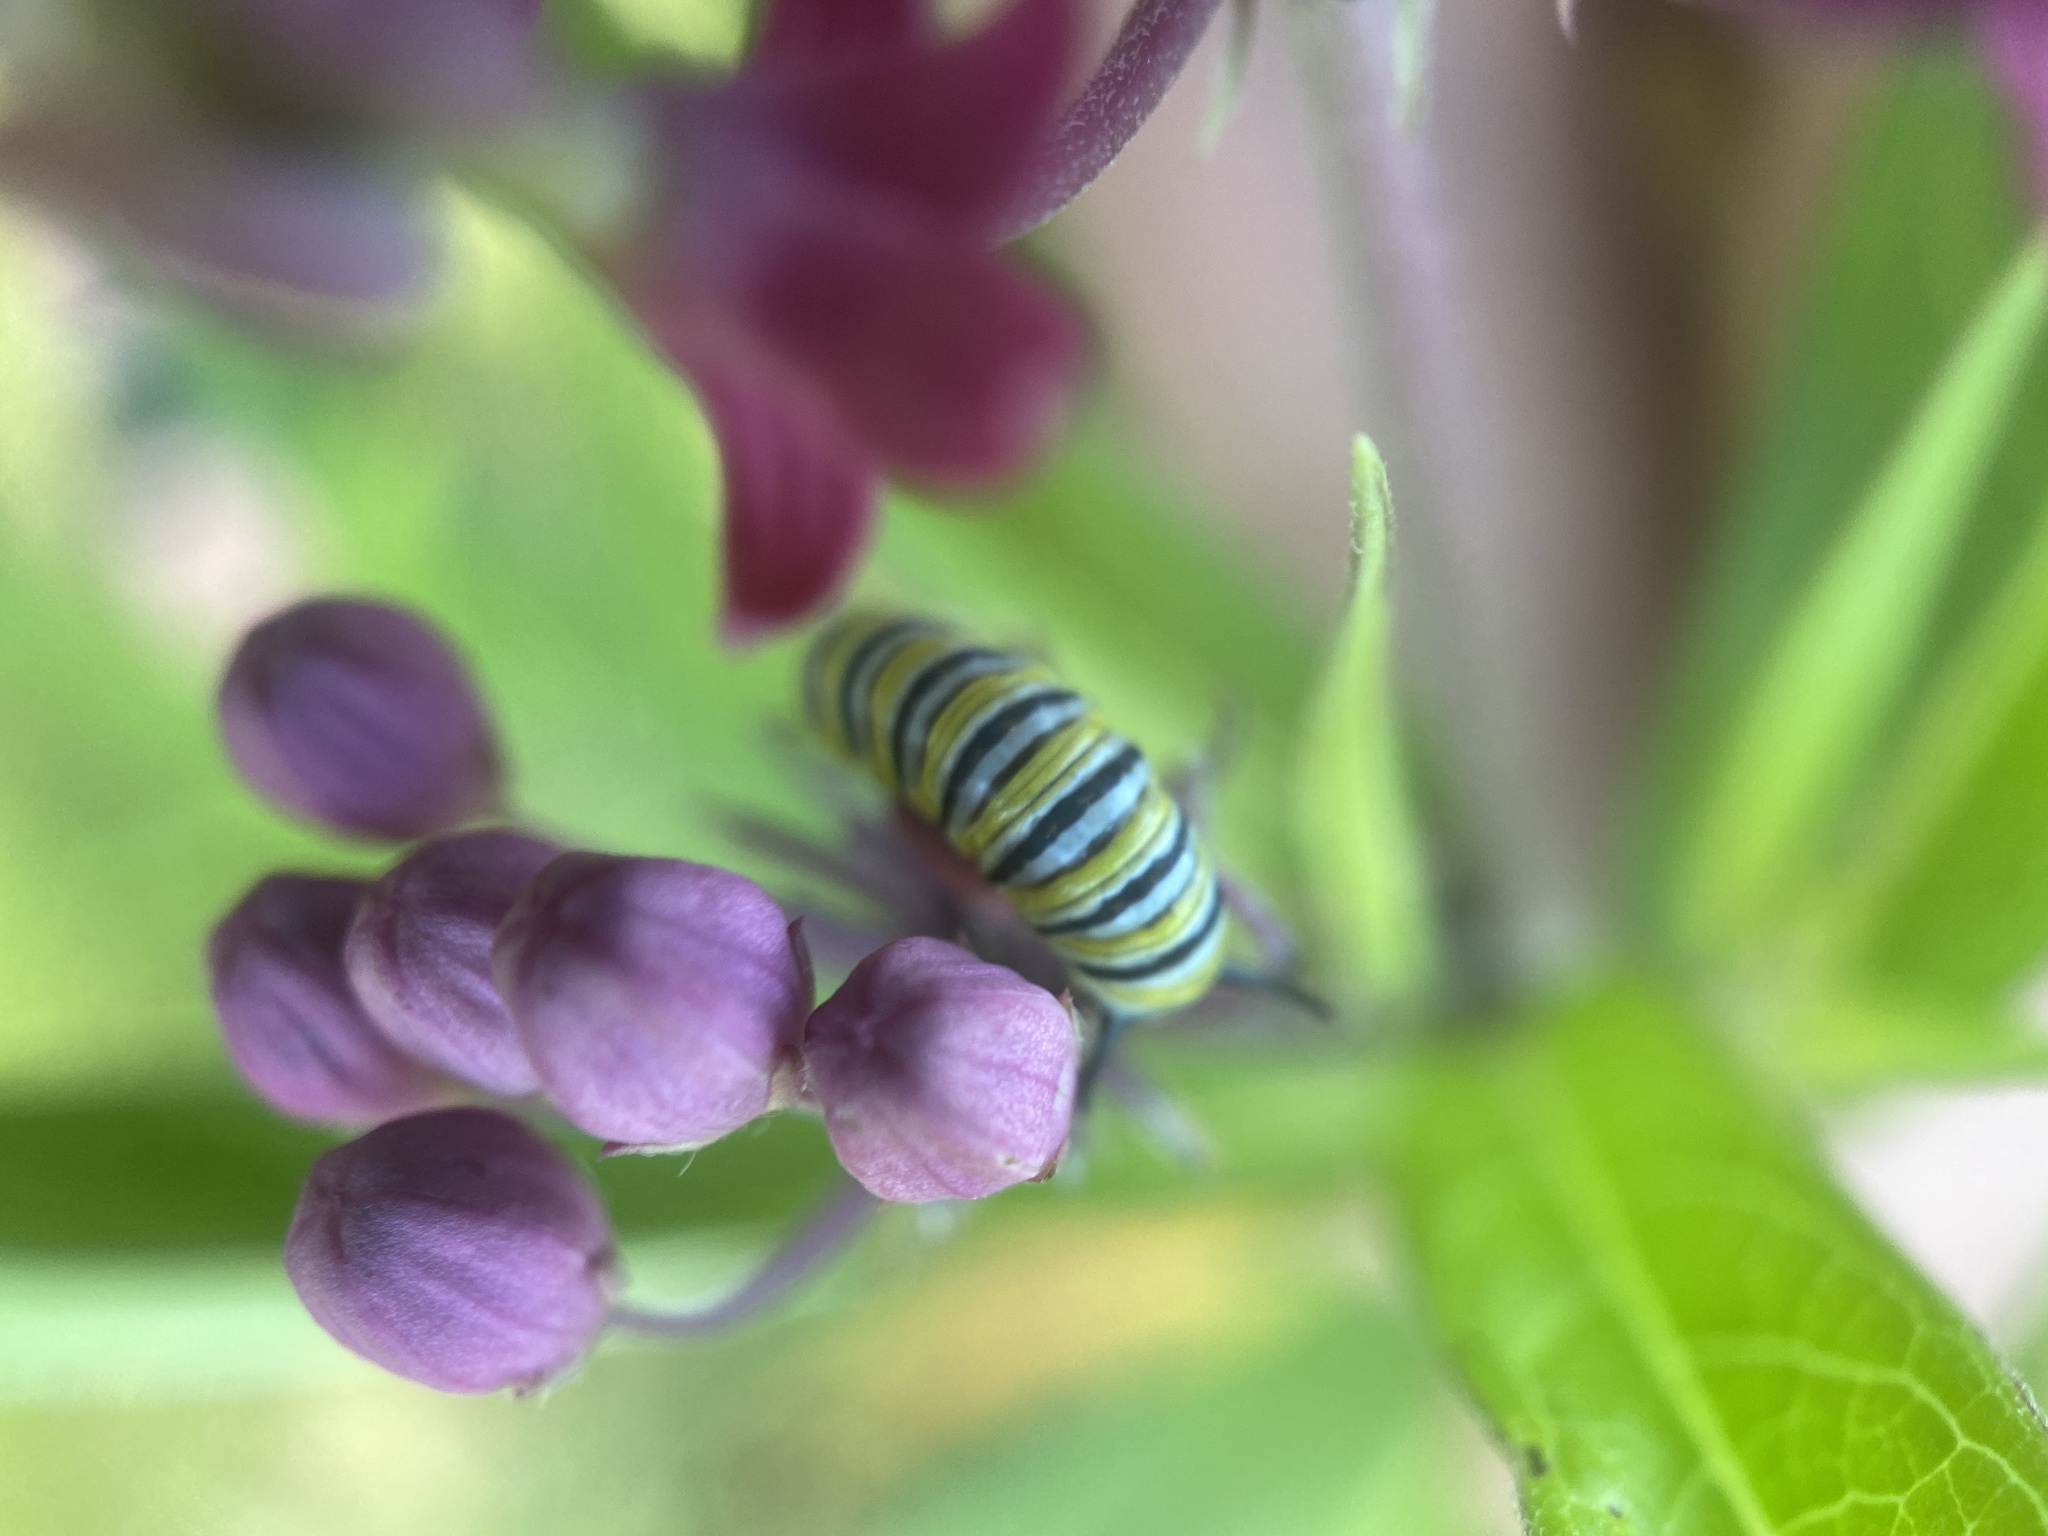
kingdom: Animalia
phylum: Arthropoda
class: Insecta
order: Lepidoptera
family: Nymphalidae
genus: Danaus
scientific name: Danaus plexippus
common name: Monarch
